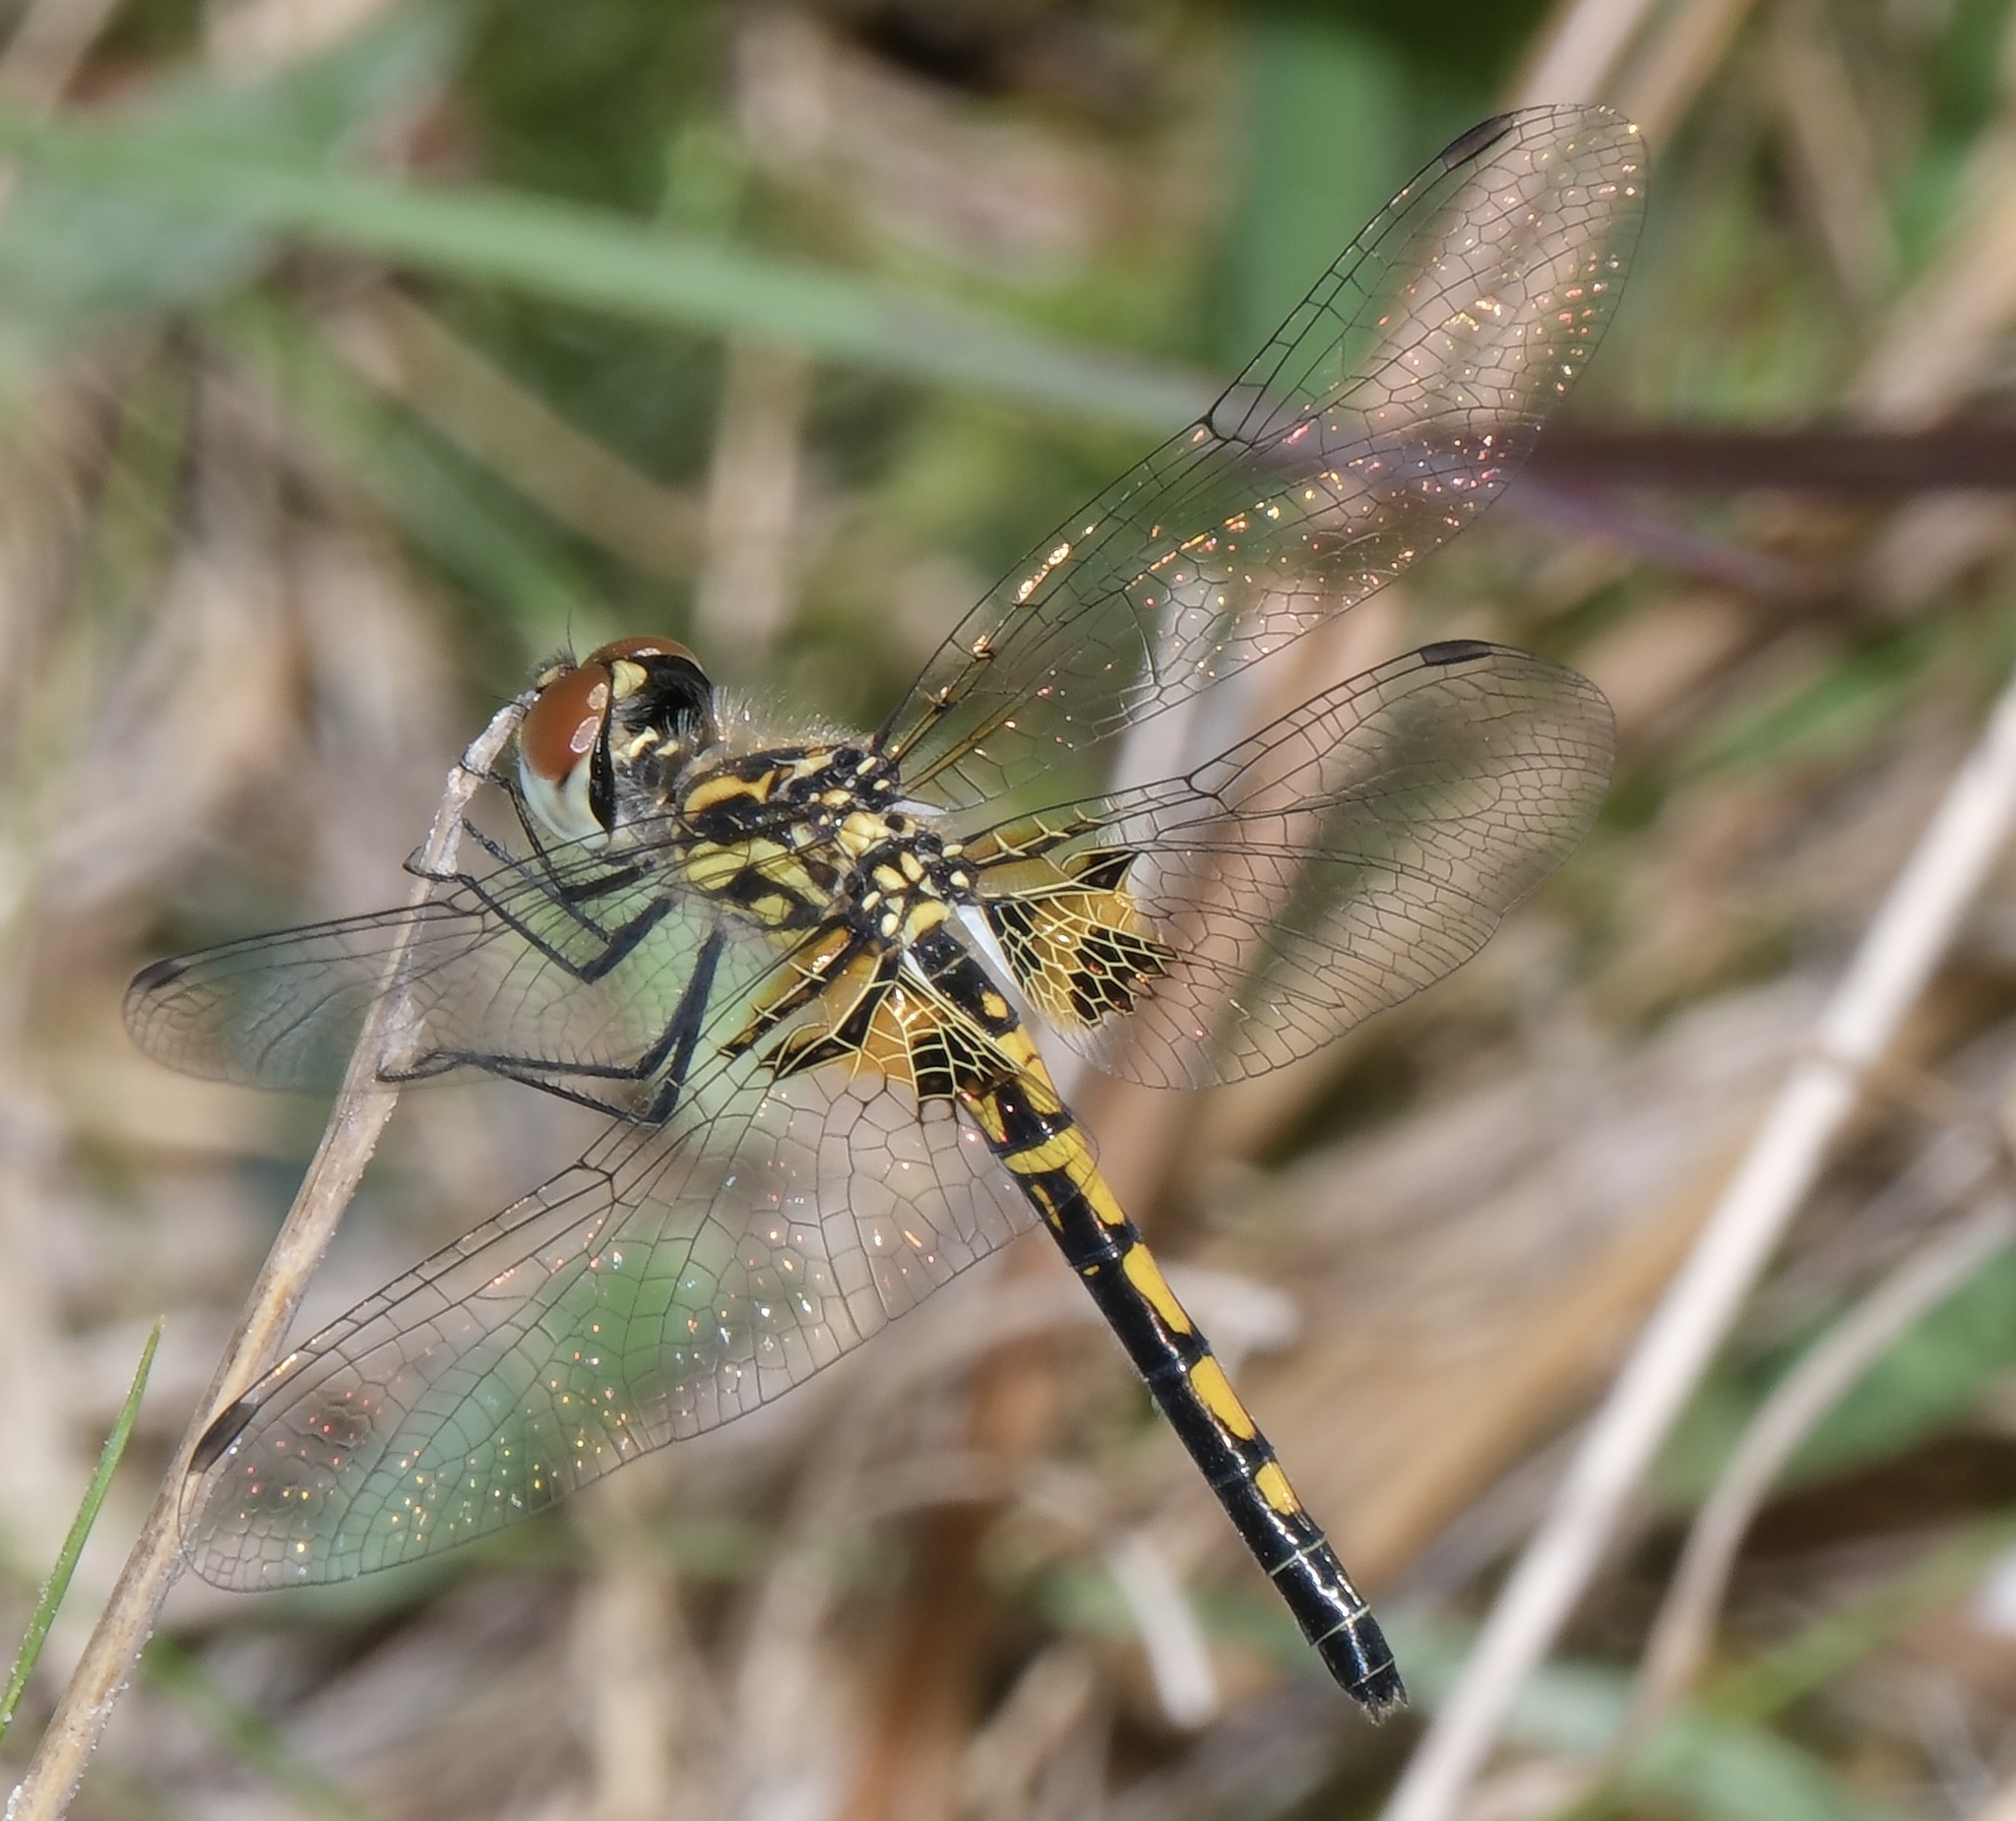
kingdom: Animalia
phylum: Arthropoda
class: Insecta
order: Odonata
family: Libellulidae
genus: Celithemis
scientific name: Celithemis ornata
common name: Ornate pennant
